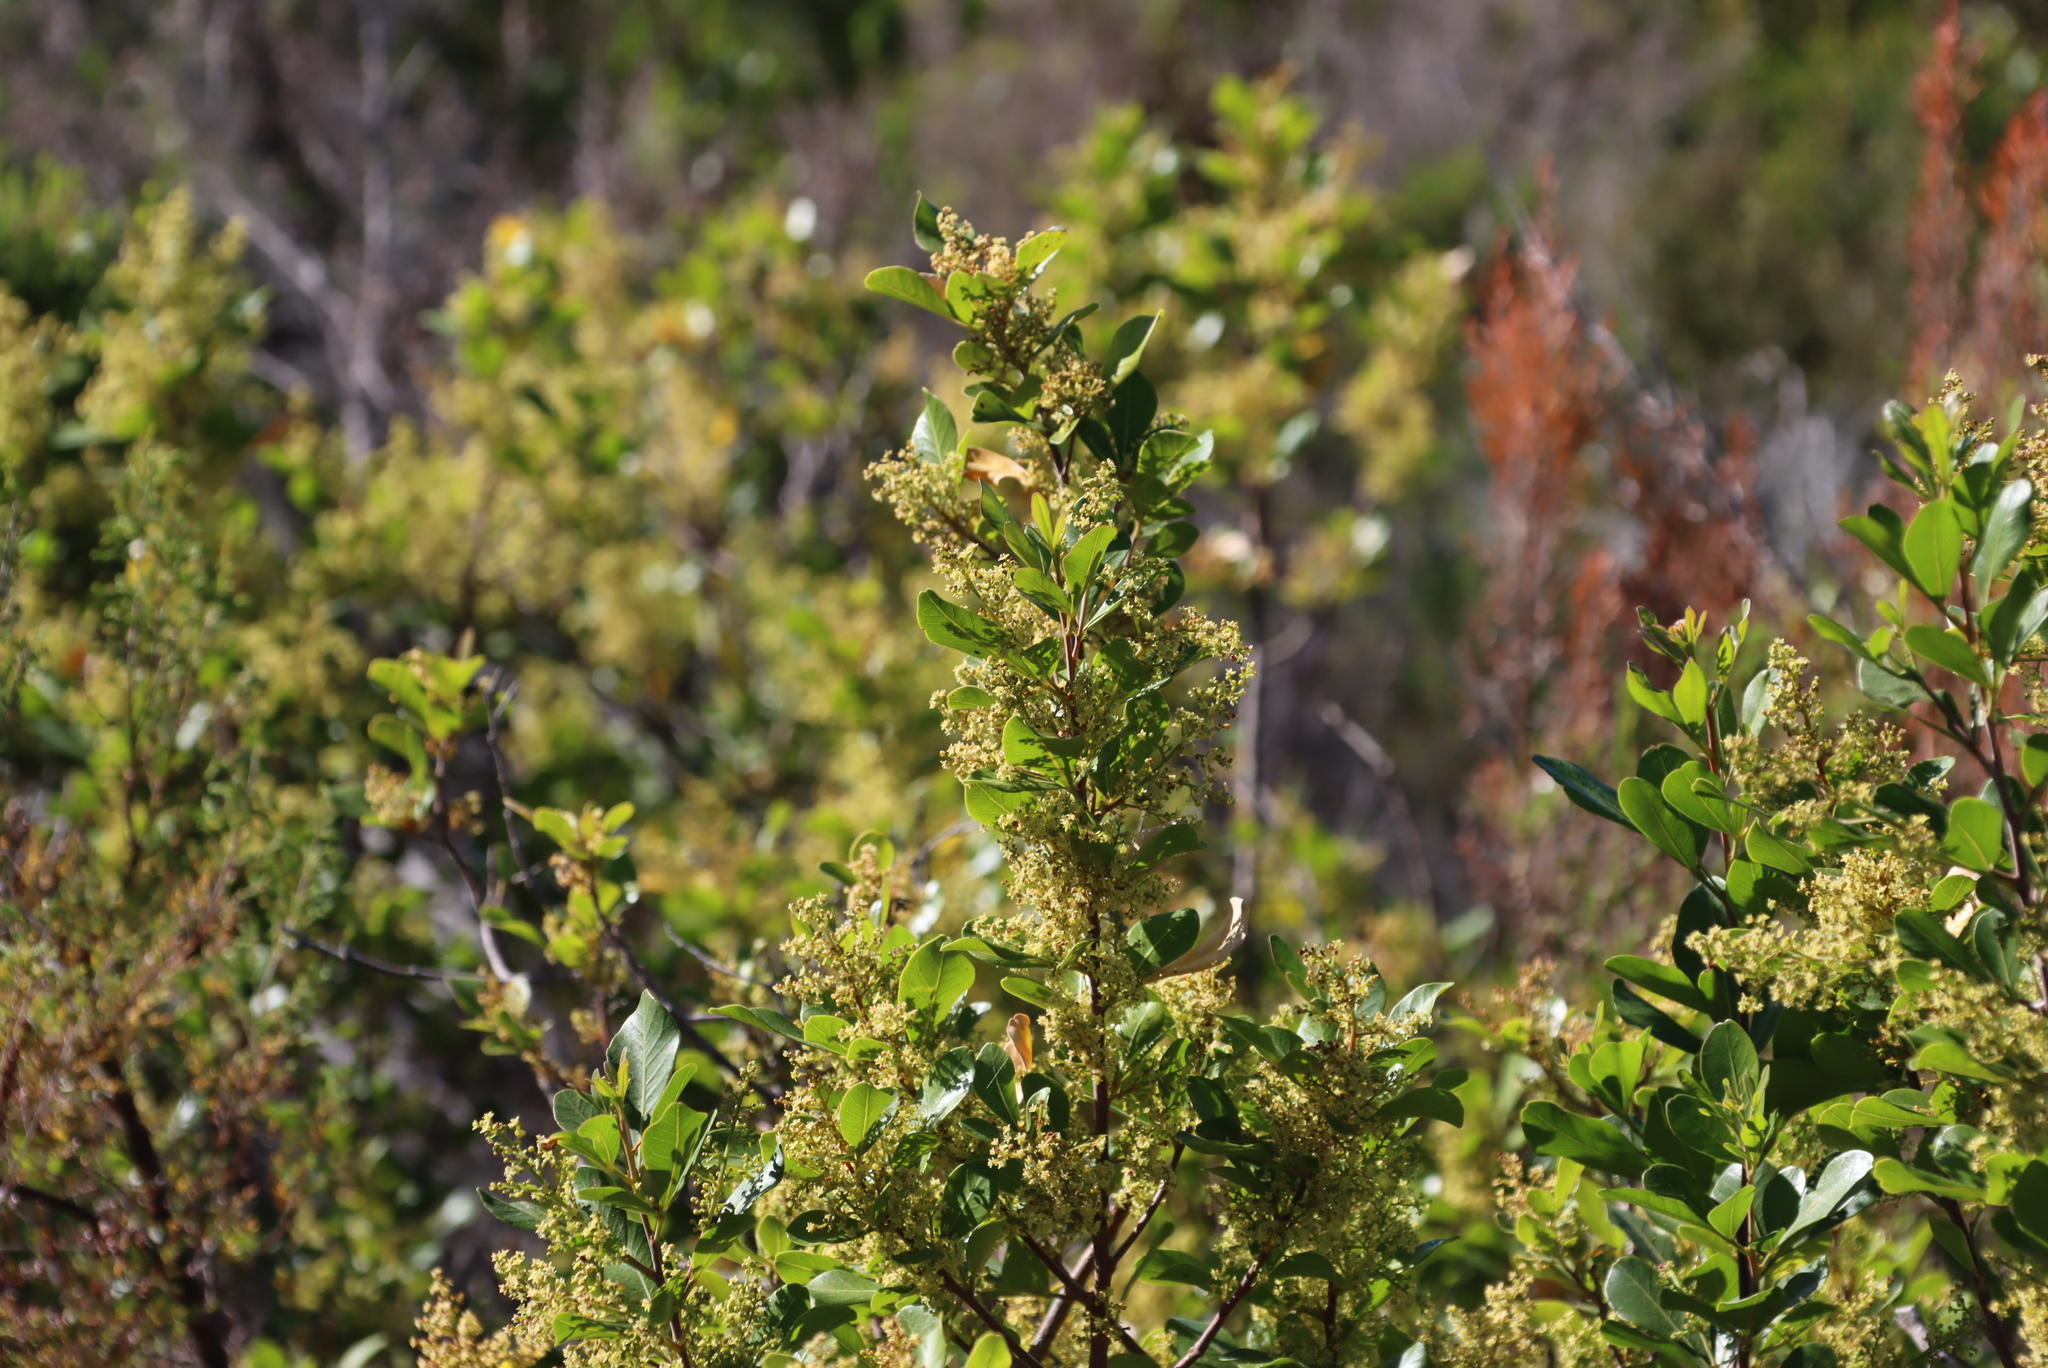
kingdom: Plantae
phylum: Tracheophyta
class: Magnoliopsida
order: Sapindales
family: Anacardiaceae
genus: Searsia
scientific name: Searsia lucida
